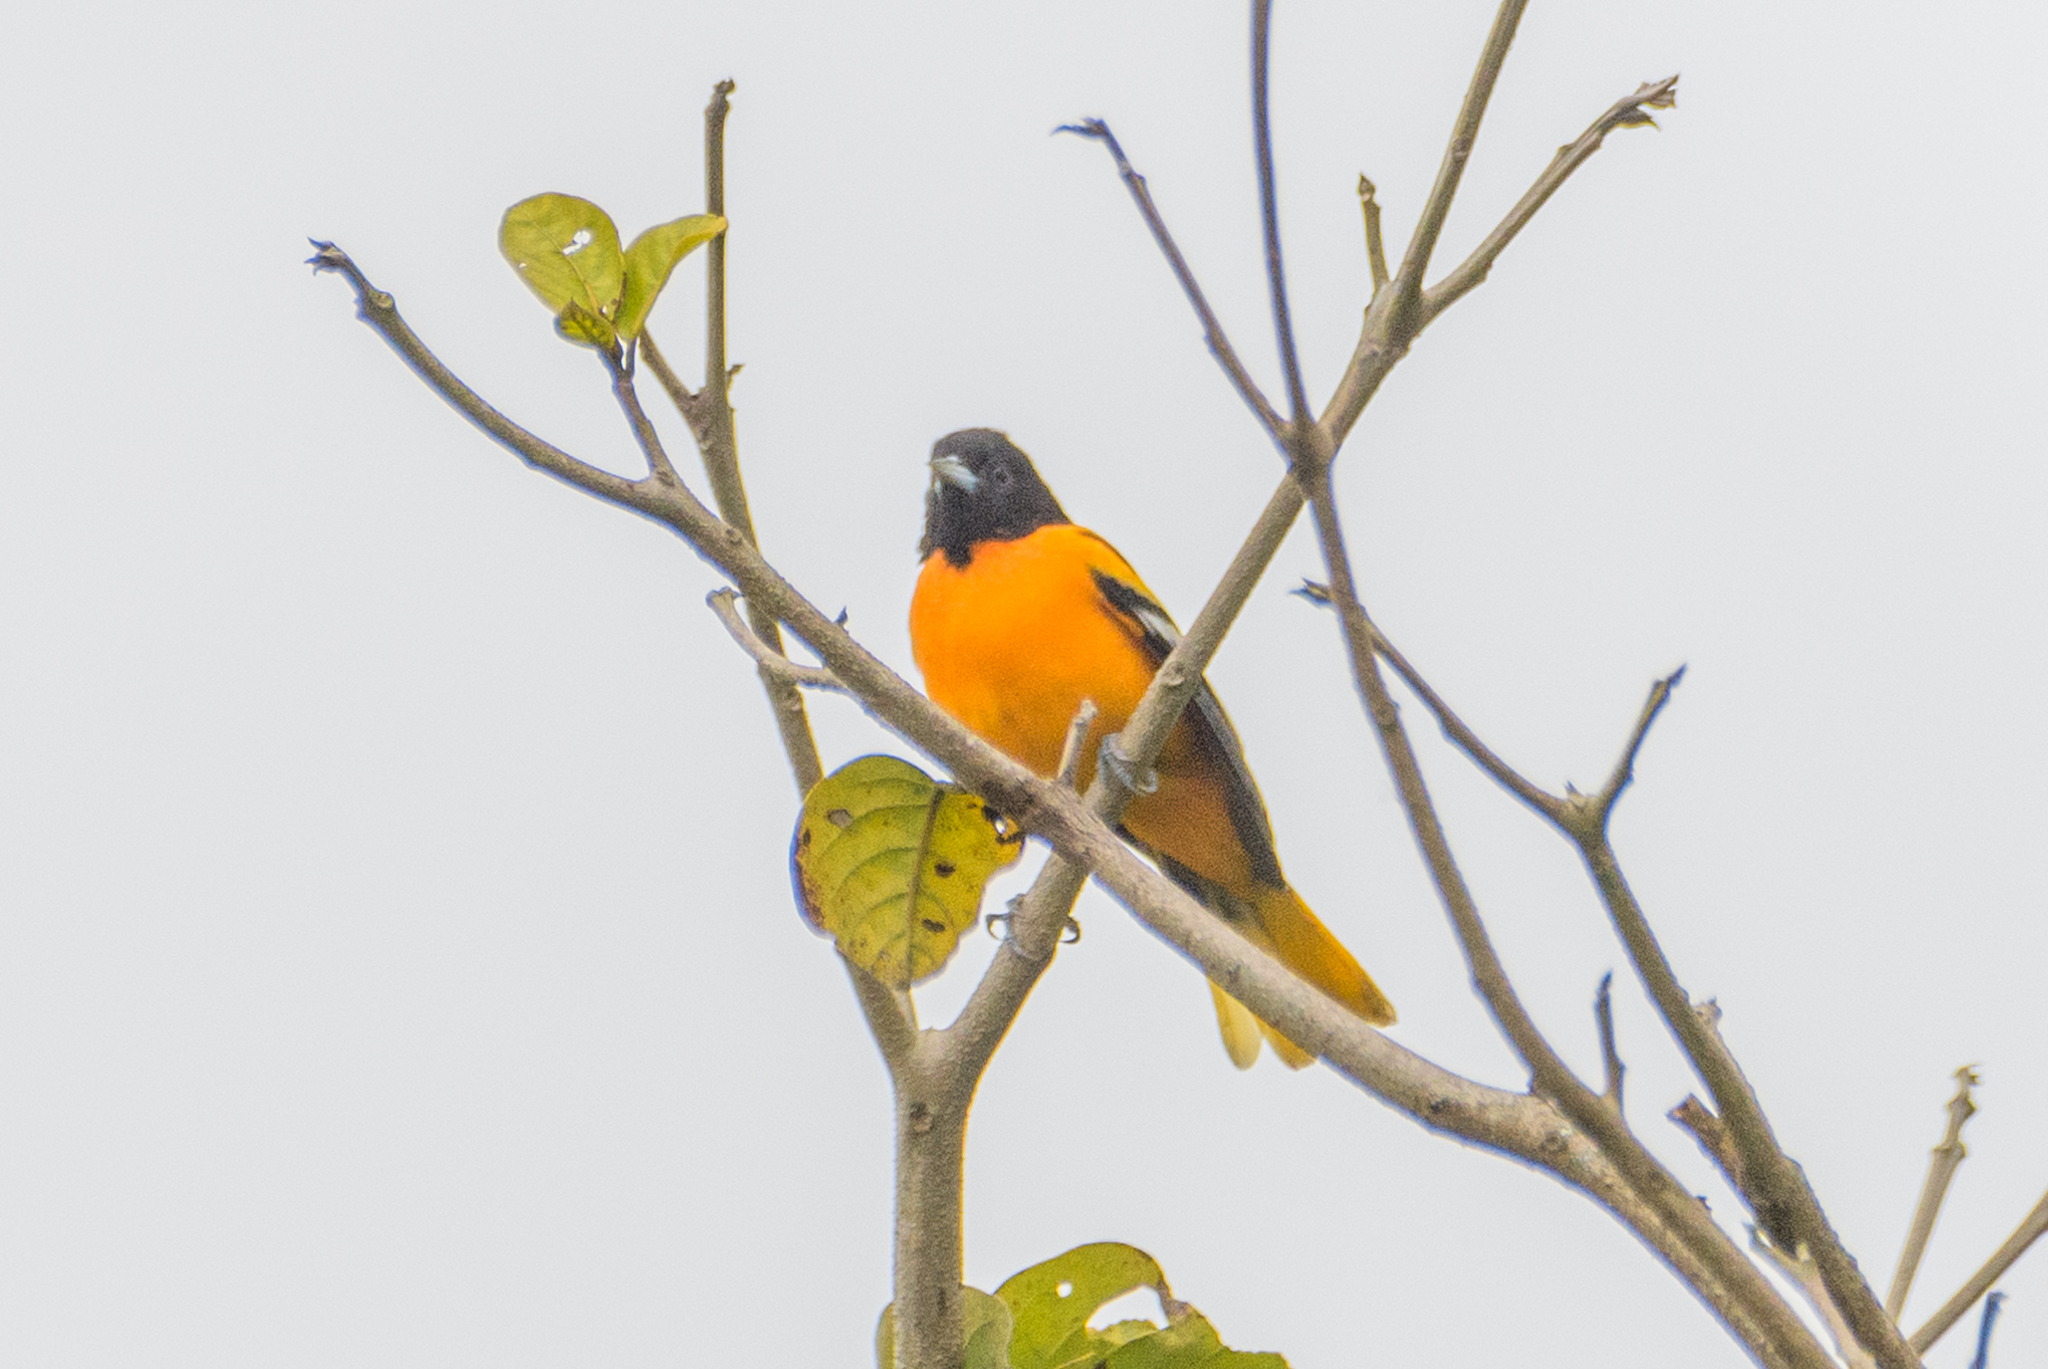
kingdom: Animalia
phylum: Chordata
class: Aves
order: Passeriformes
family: Icteridae
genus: Icterus
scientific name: Icterus galbula
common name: Baltimore oriole
